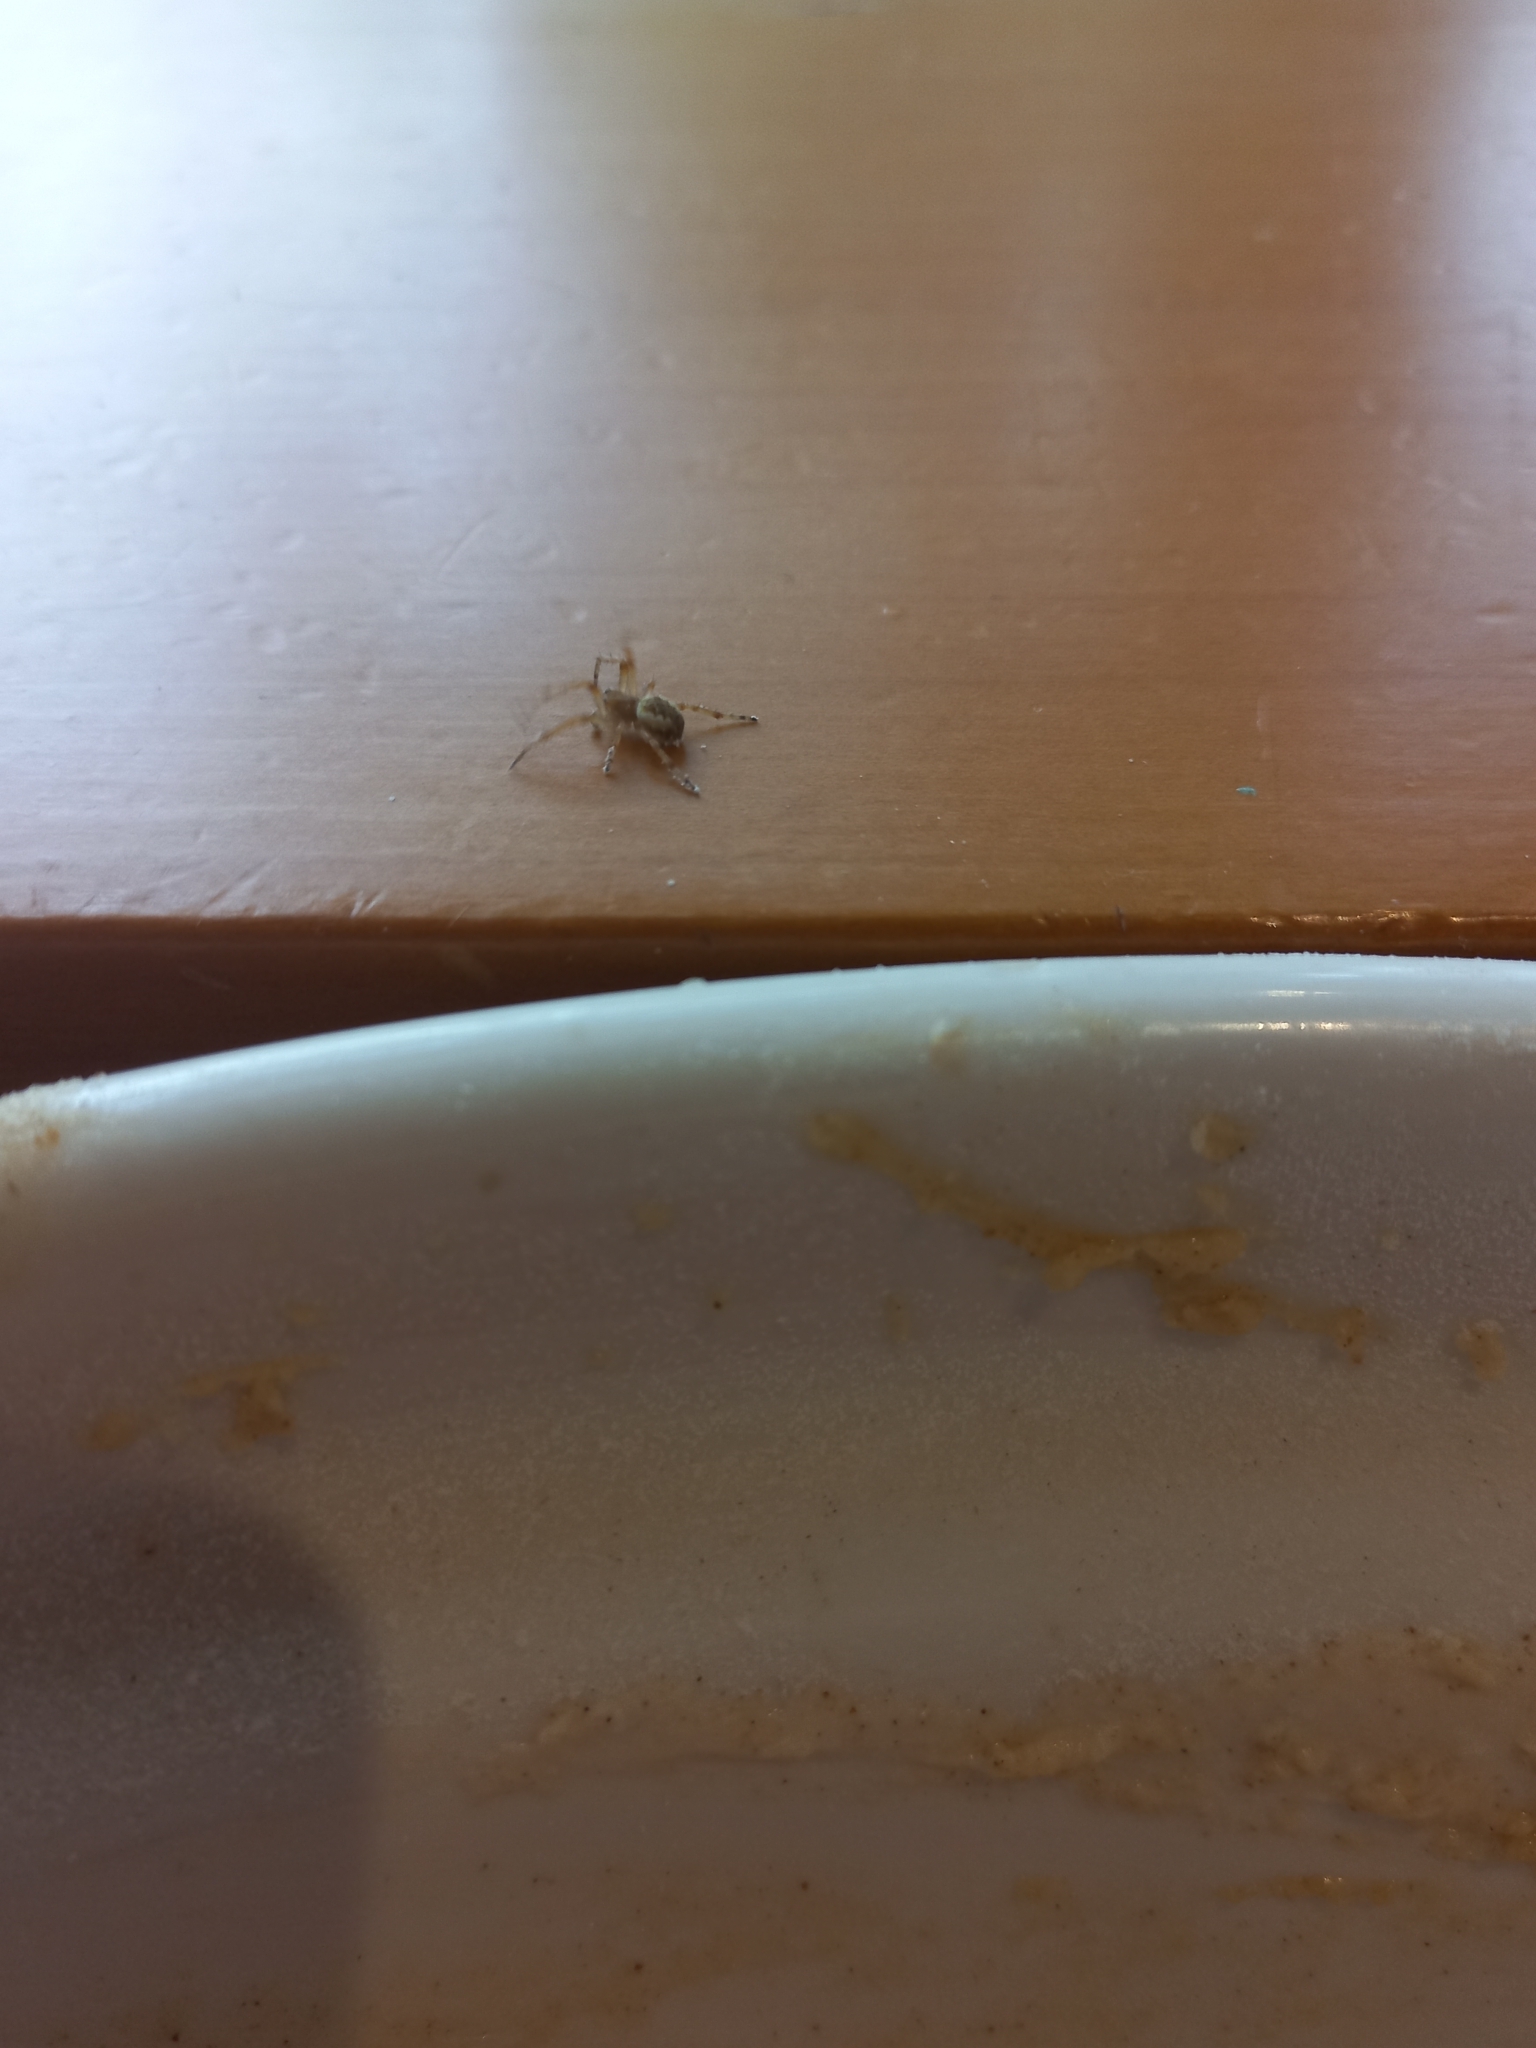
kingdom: Animalia
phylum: Arthropoda
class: Arachnida
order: Araneae
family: Araneidae
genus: Salsa
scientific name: Salsa fuliginata
